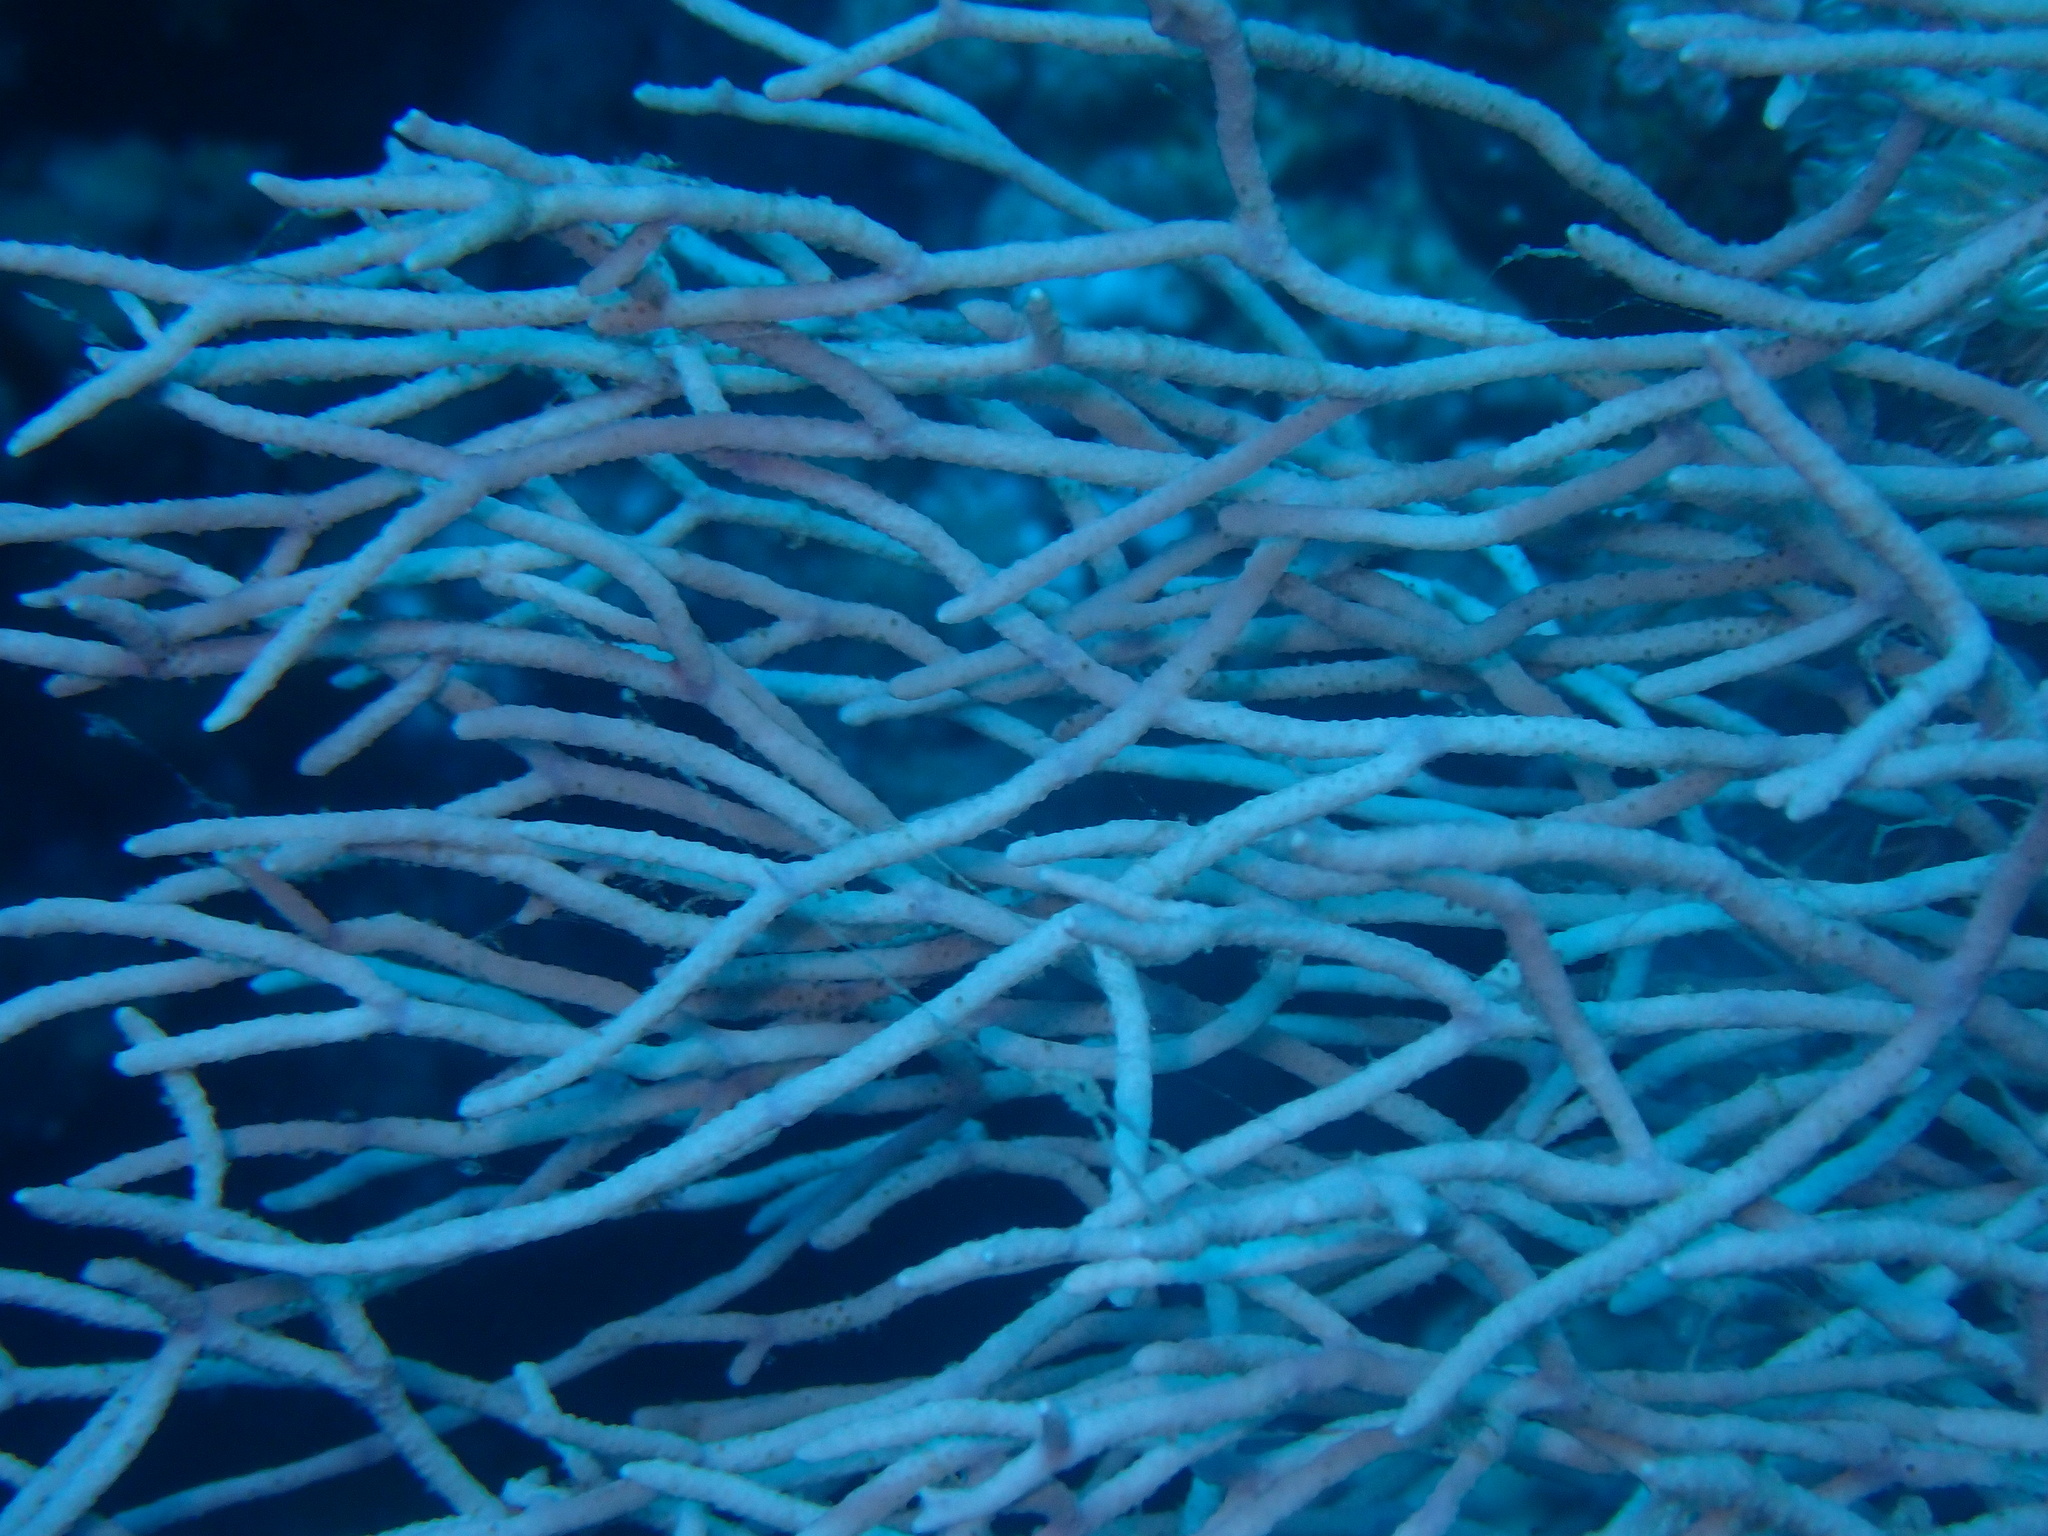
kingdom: Animalia
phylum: Cnidaria
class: Anthozoa
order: Malacalcyonacea
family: Melithaeidae
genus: Melithaea
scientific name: Melithaea rubrinodis
